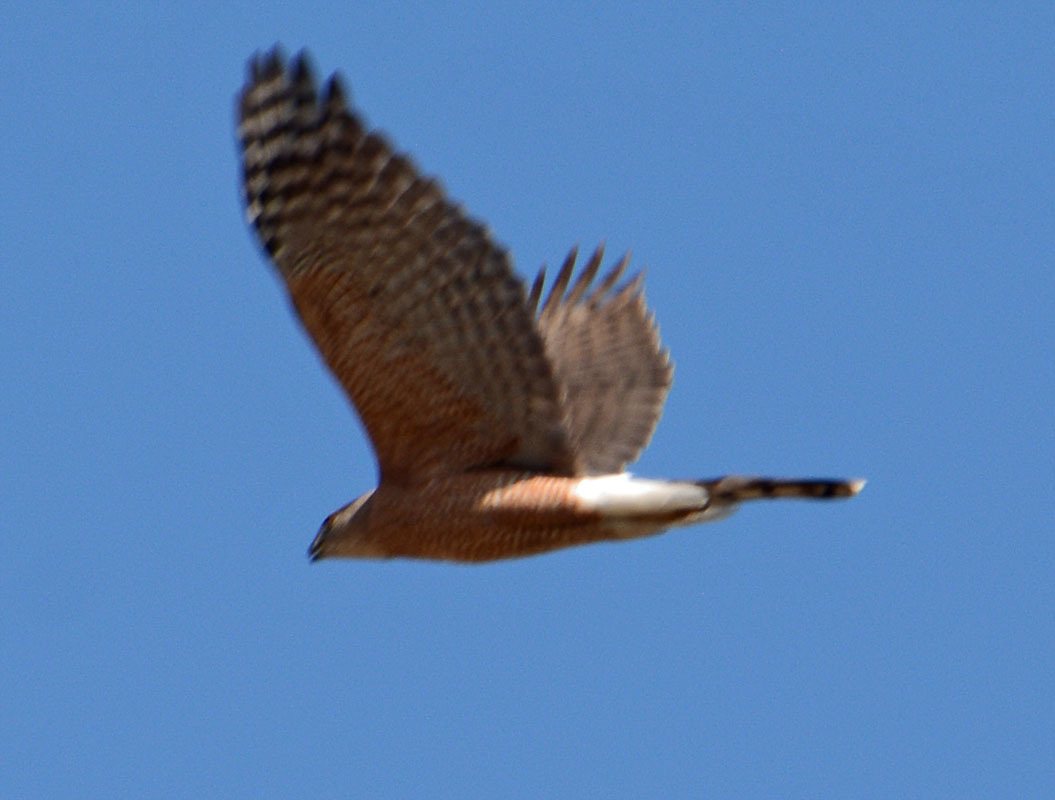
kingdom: Animalia
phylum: Chordata
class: Aves
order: Accipitriformes
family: Accipitridae
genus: Accipiter
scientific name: Accipiter cooperii
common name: Cooper's hawk
